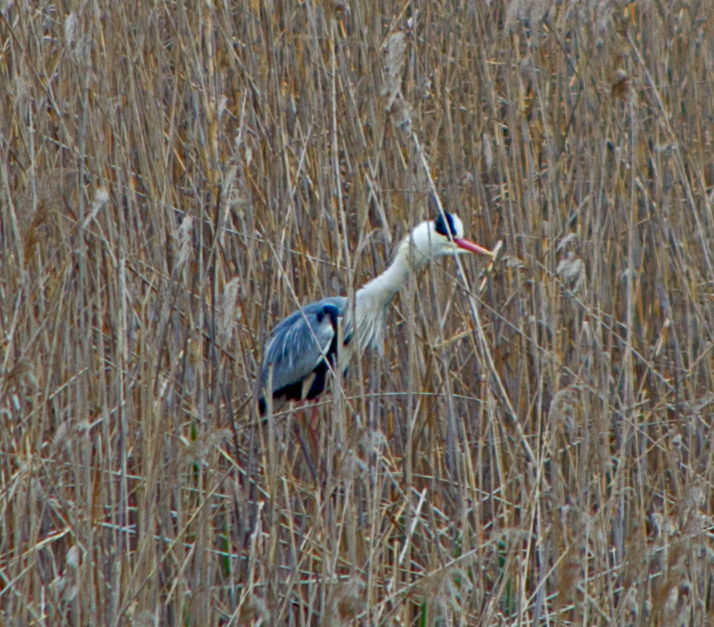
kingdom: Animalia
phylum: Chordata
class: Aves
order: Pelecaniformes
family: Ardeidae
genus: Ardea
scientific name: Ardea cinerea
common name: Grey heron
